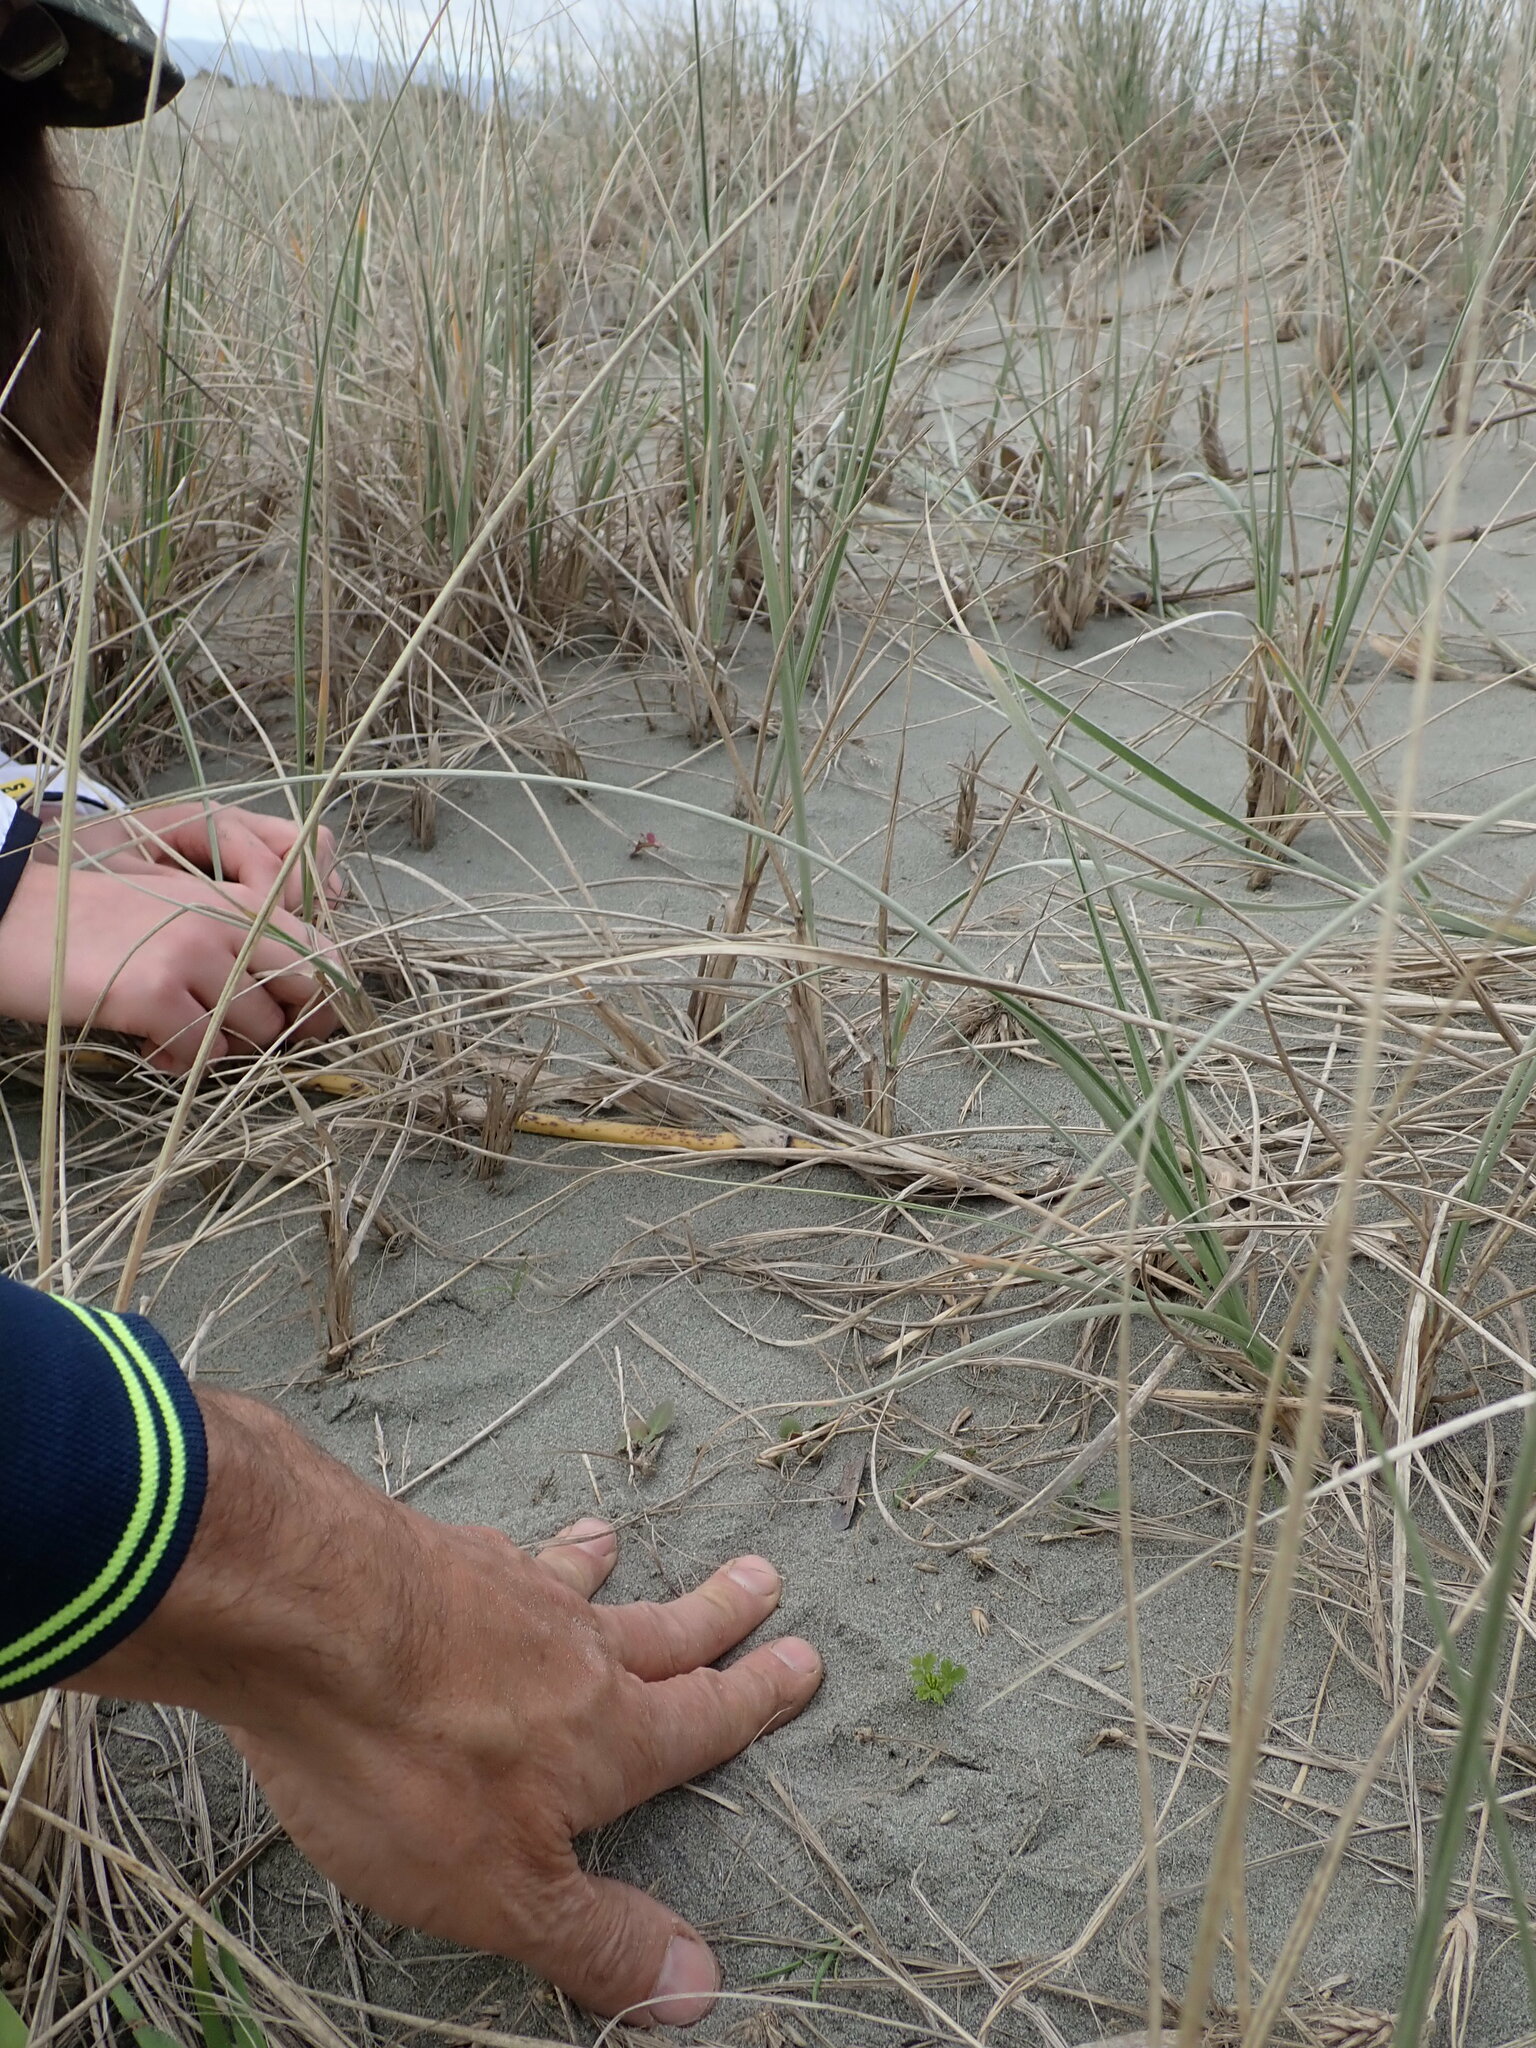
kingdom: Plantae
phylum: Tracheophyta
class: Magnoliopsida
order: Rosales
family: Rosaceae
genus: Acaena
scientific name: Acaena novae-zelandiae
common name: Pirri-pirri-bur
